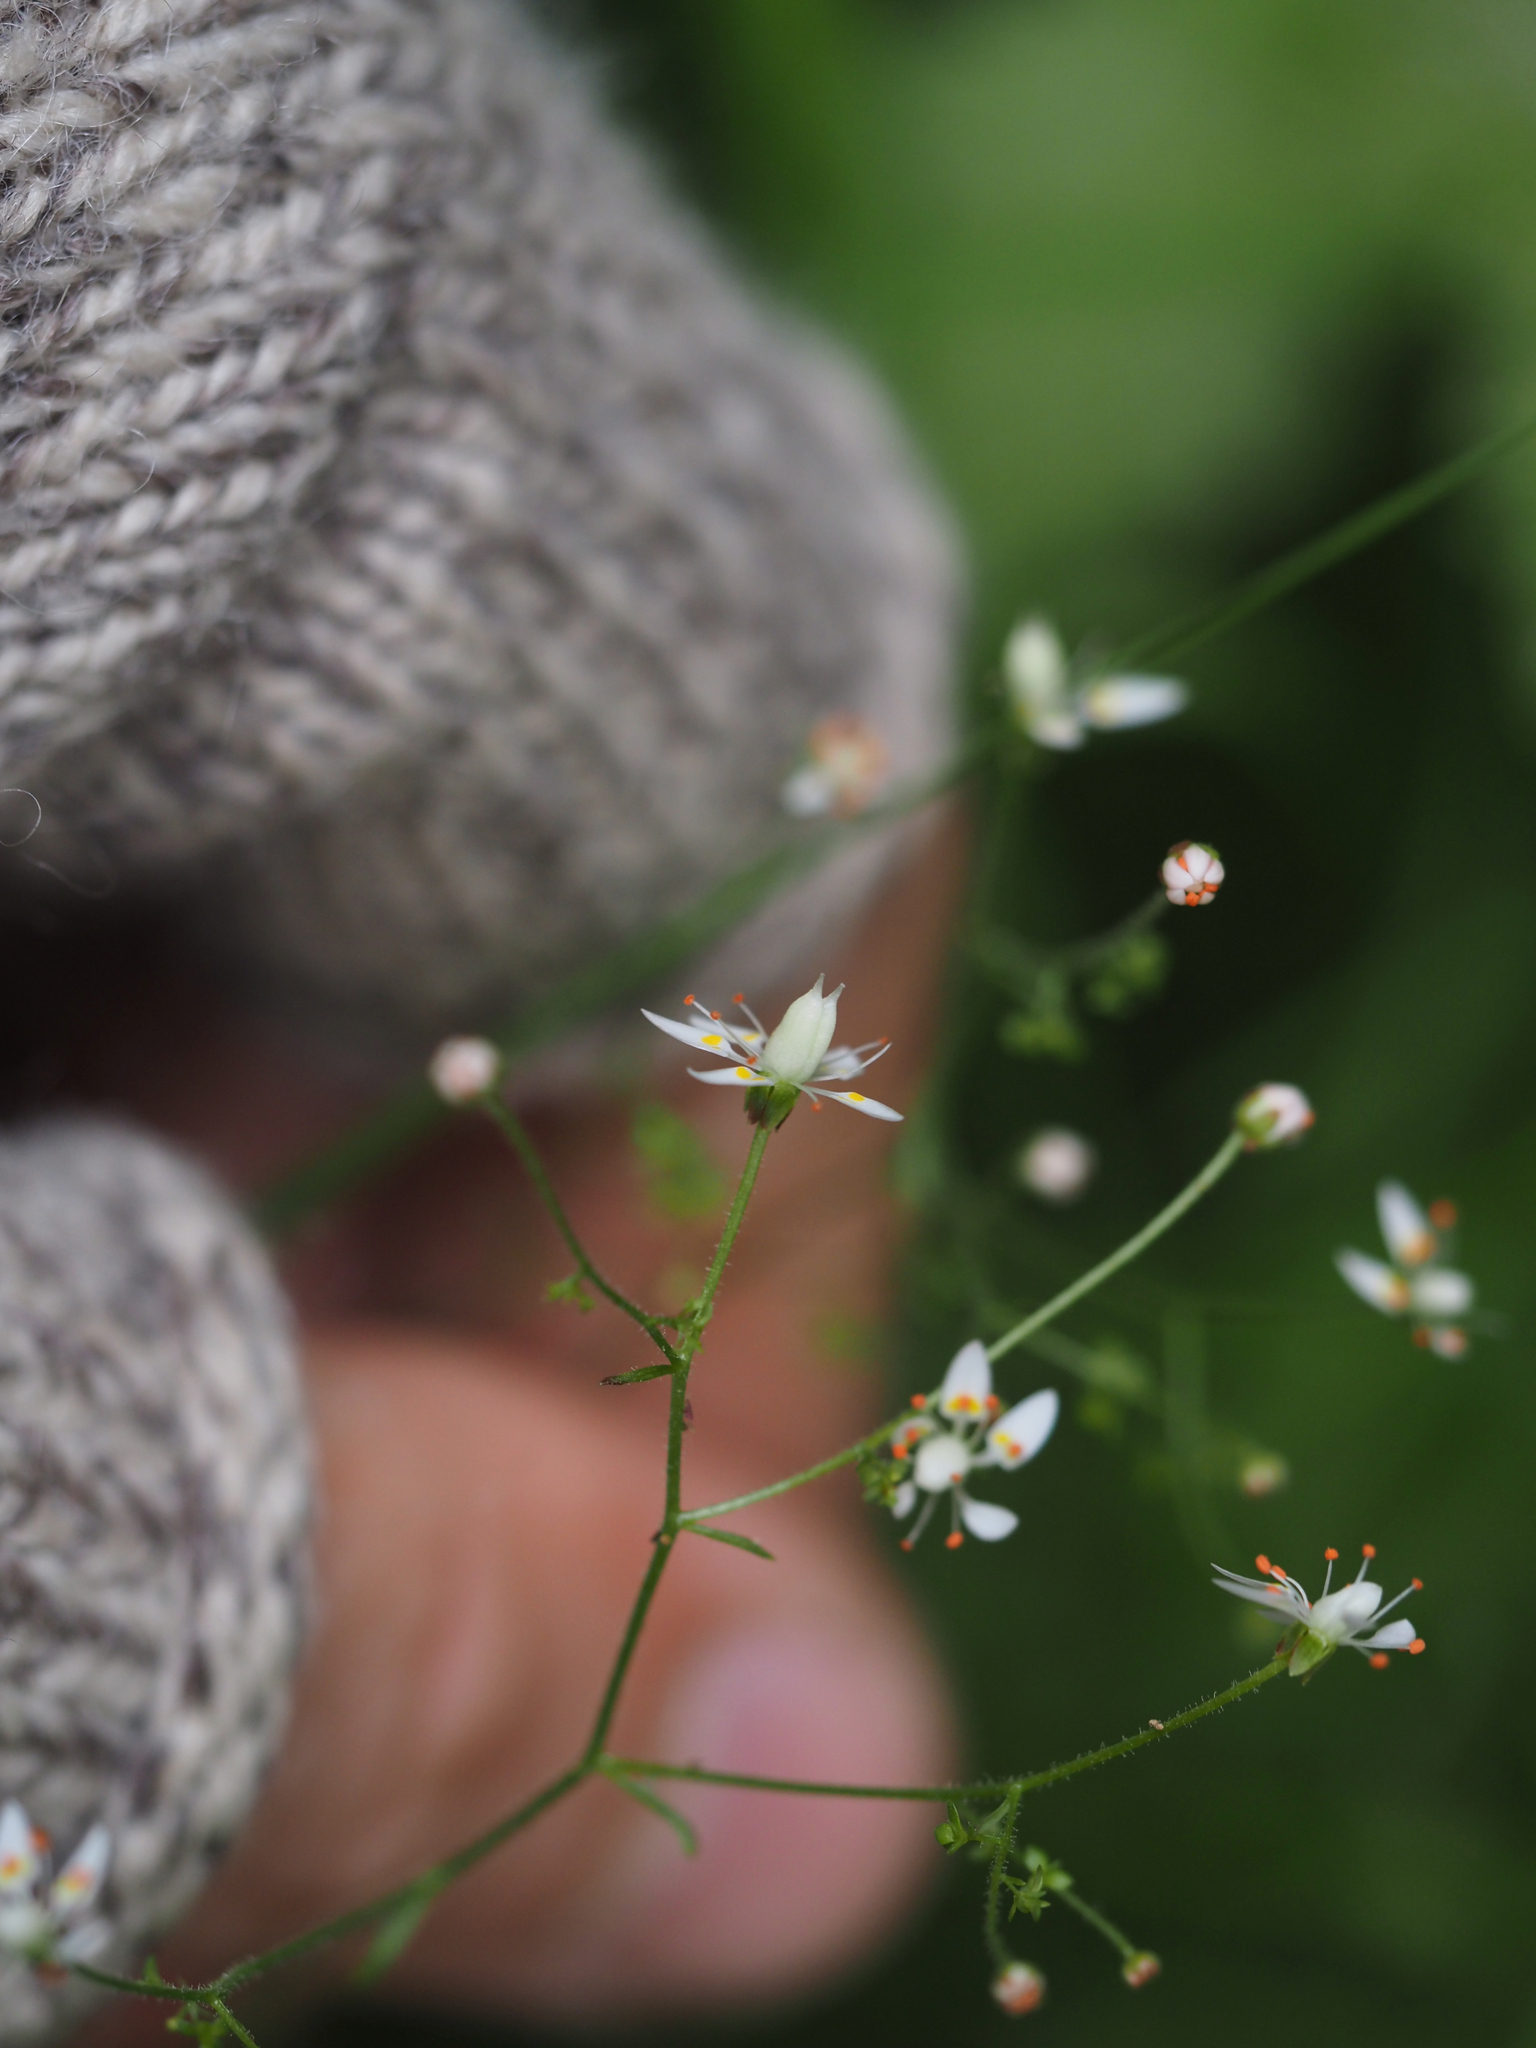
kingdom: Plantae
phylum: Tracheophyta
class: Magnoliopsida
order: Saxifragales
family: Saxifragaceae
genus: Micranthes
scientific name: Micranthes ferruginea
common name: Rusty saxifrage
